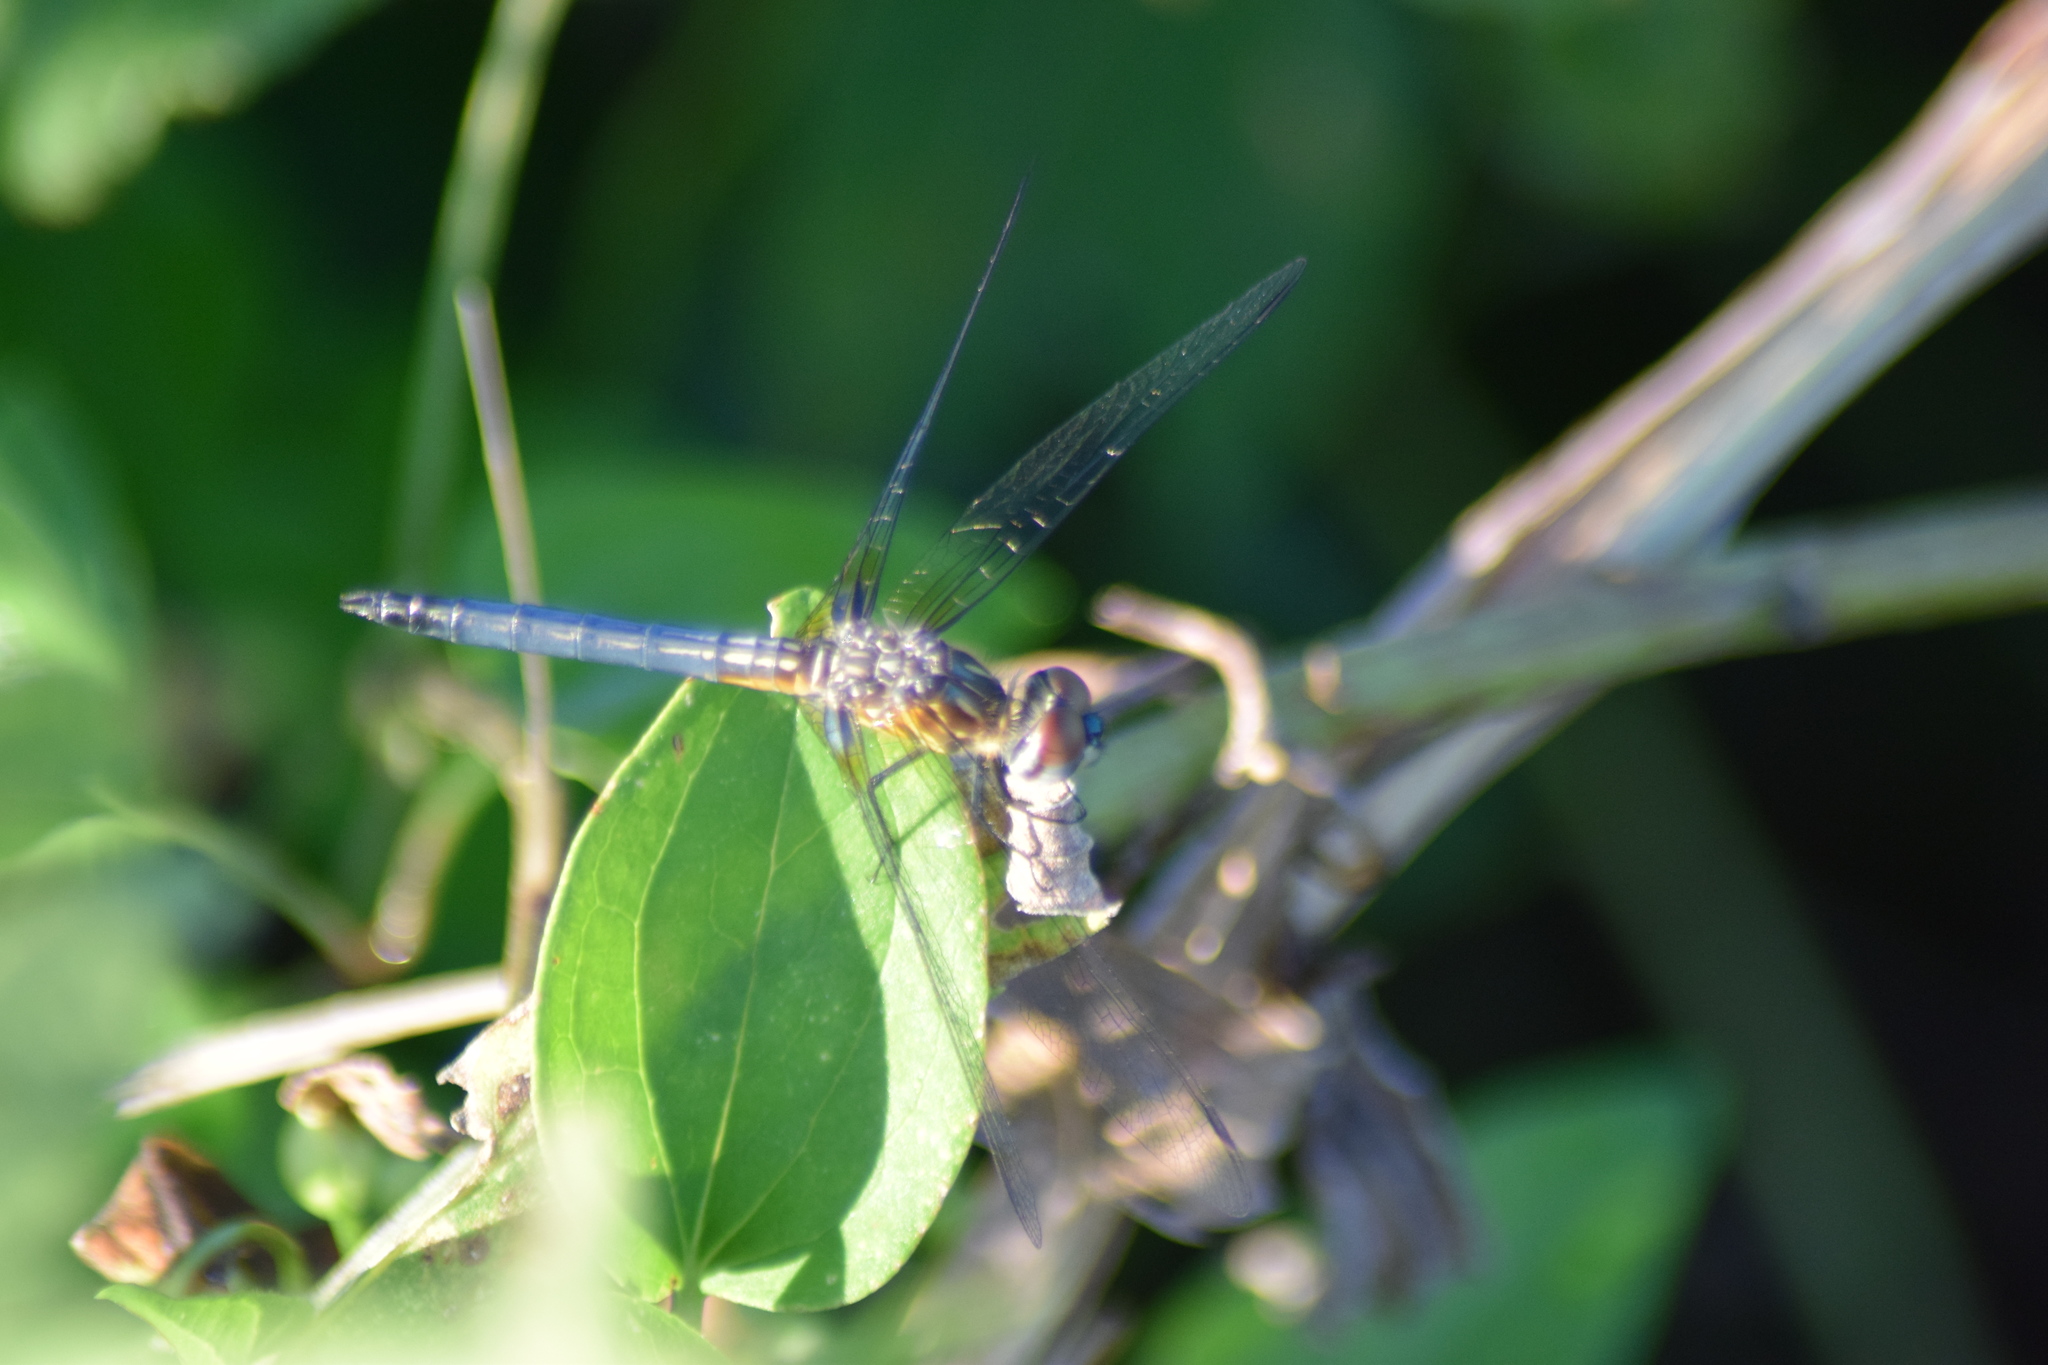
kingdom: Animalia
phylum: Arthropoda
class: Insecta
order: Odonata
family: Libellulidae
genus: Pachydiplax
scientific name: Pachydiplax longipennis
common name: Blue dasher
